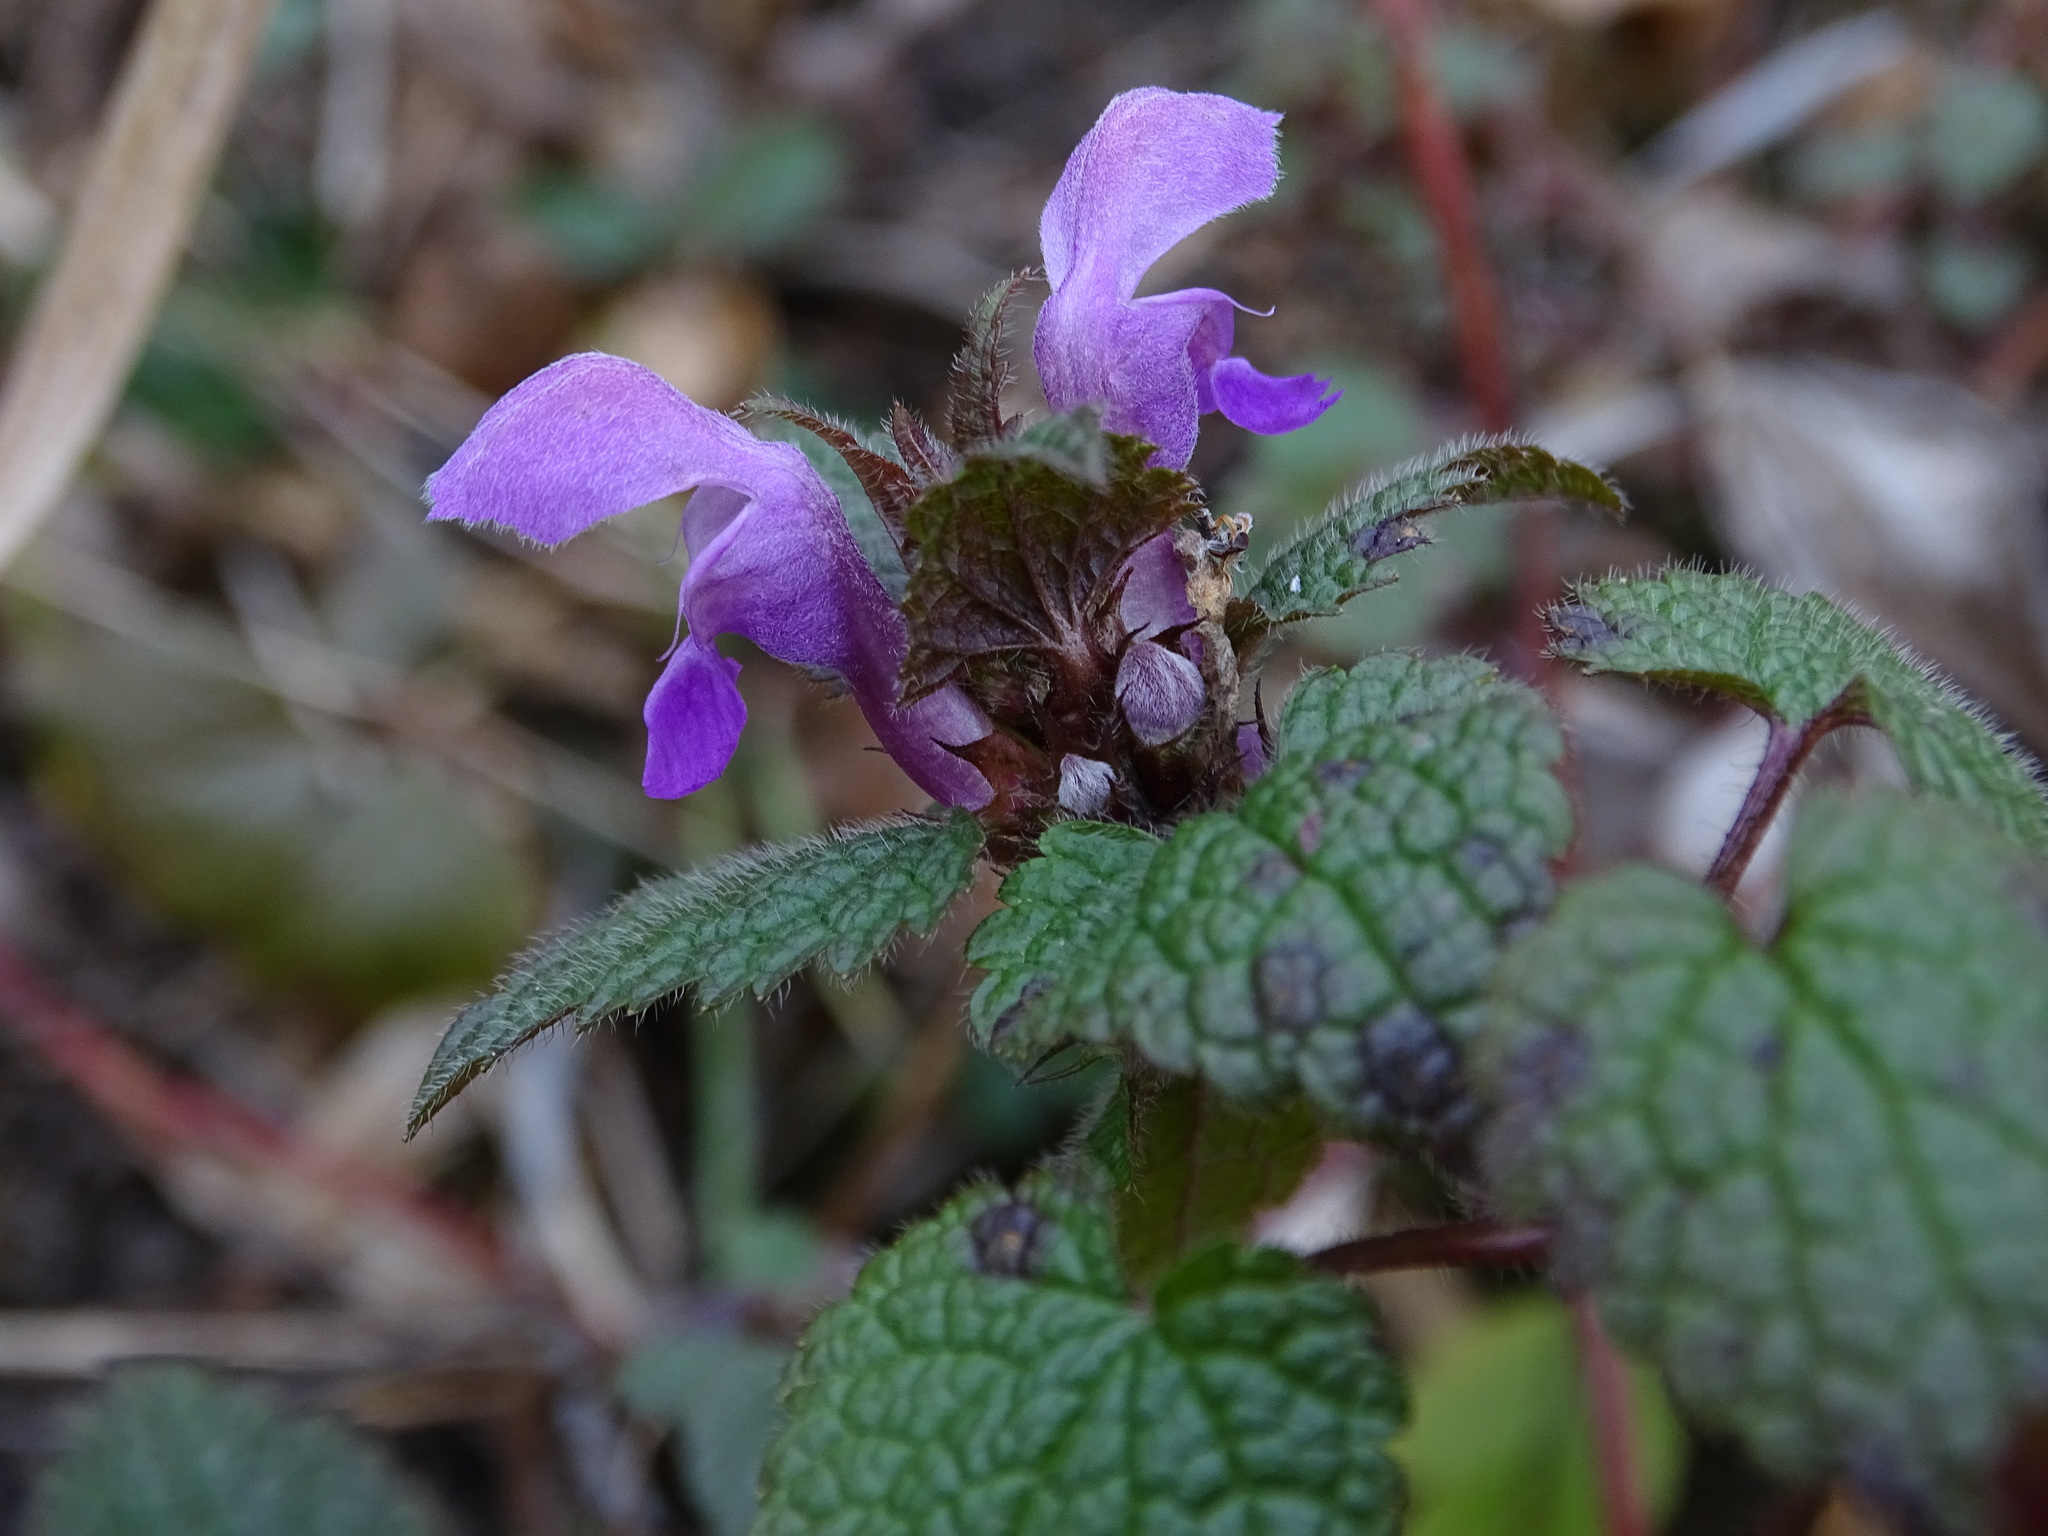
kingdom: Plantae
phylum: Tracheophyta
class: Magnoliopsida
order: Lamiales
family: Lamiaceae
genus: Lamium
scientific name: Lamium maculatum
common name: Spotted dead-nettle
